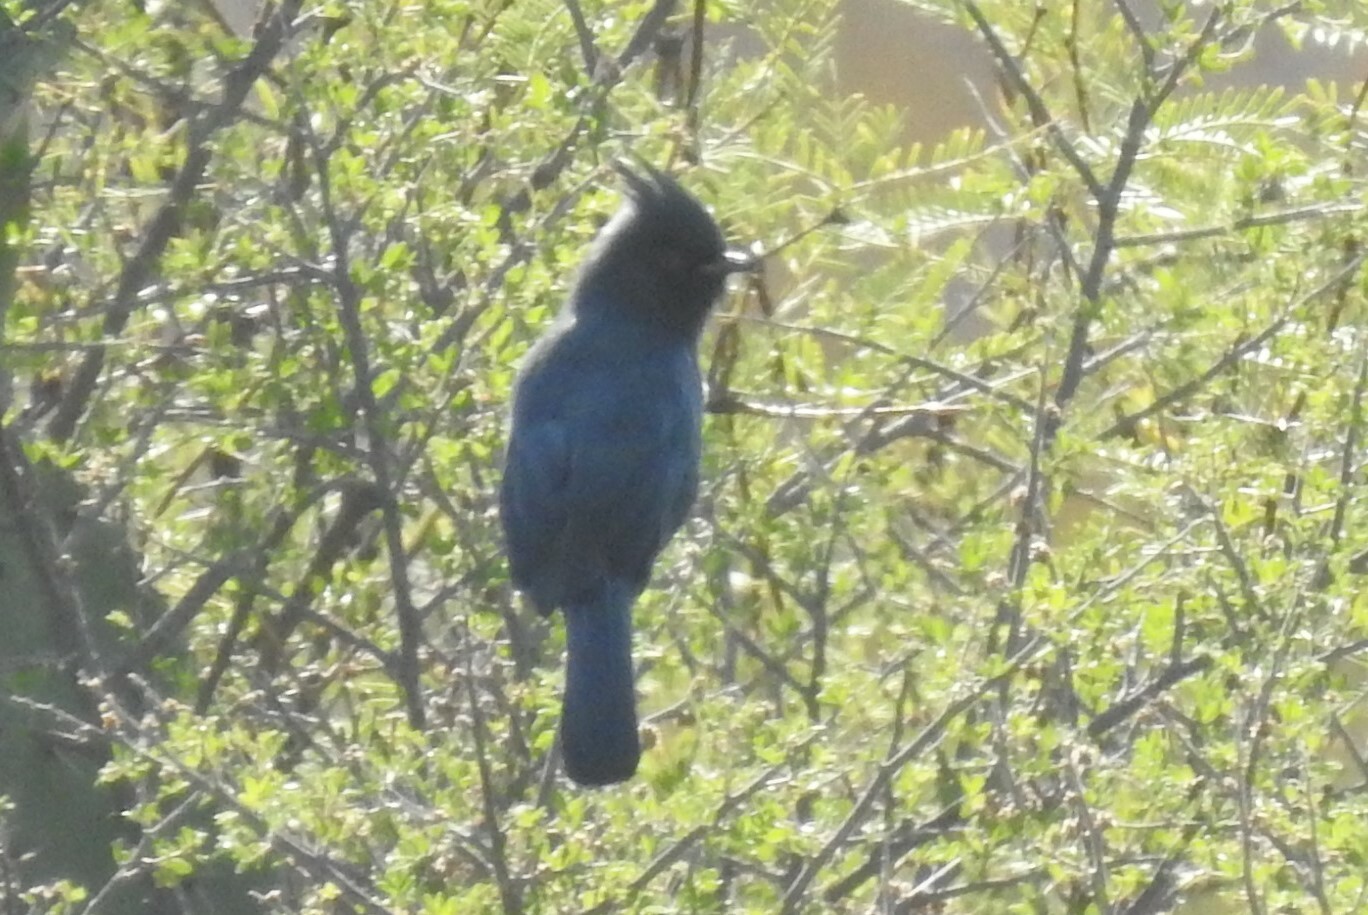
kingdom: Animalia
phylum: Chordata
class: Aves
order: Passeriformes
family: Ptilogonatidae
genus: Phainopepla
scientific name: Phainopepla nitens
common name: Phainopepla
